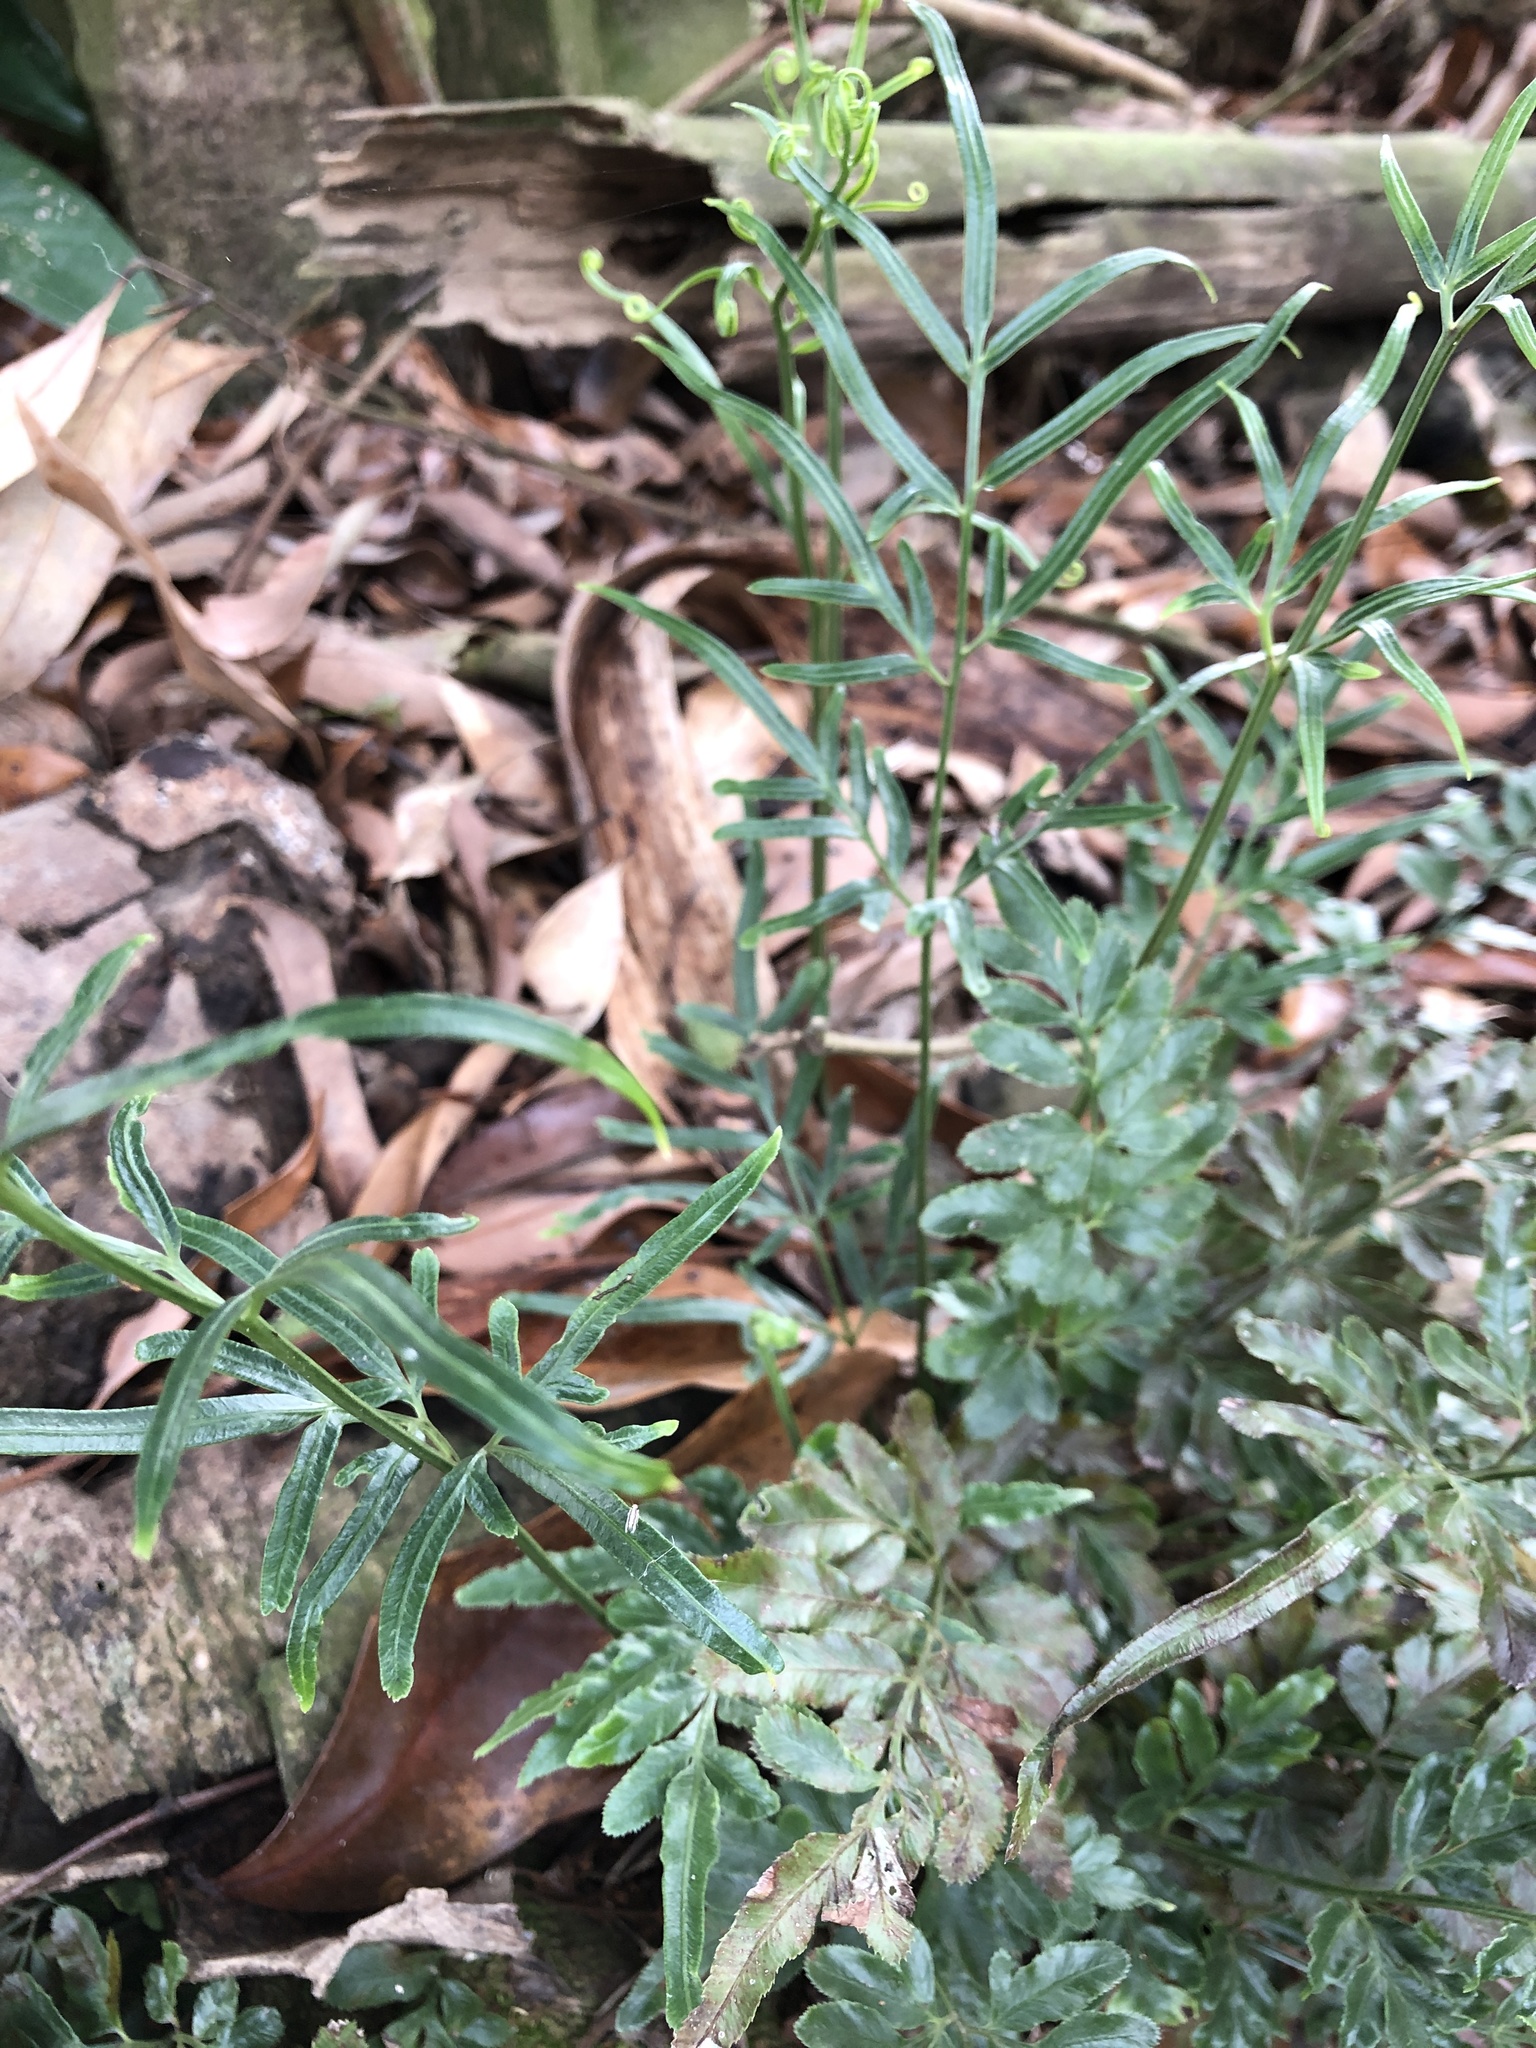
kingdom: Plantae
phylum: Tracheophyta
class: Polypodiopsida
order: Polypodiales
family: Pteridaceae
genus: Pteris
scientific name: Pteris ensiformis
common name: Sword brake
